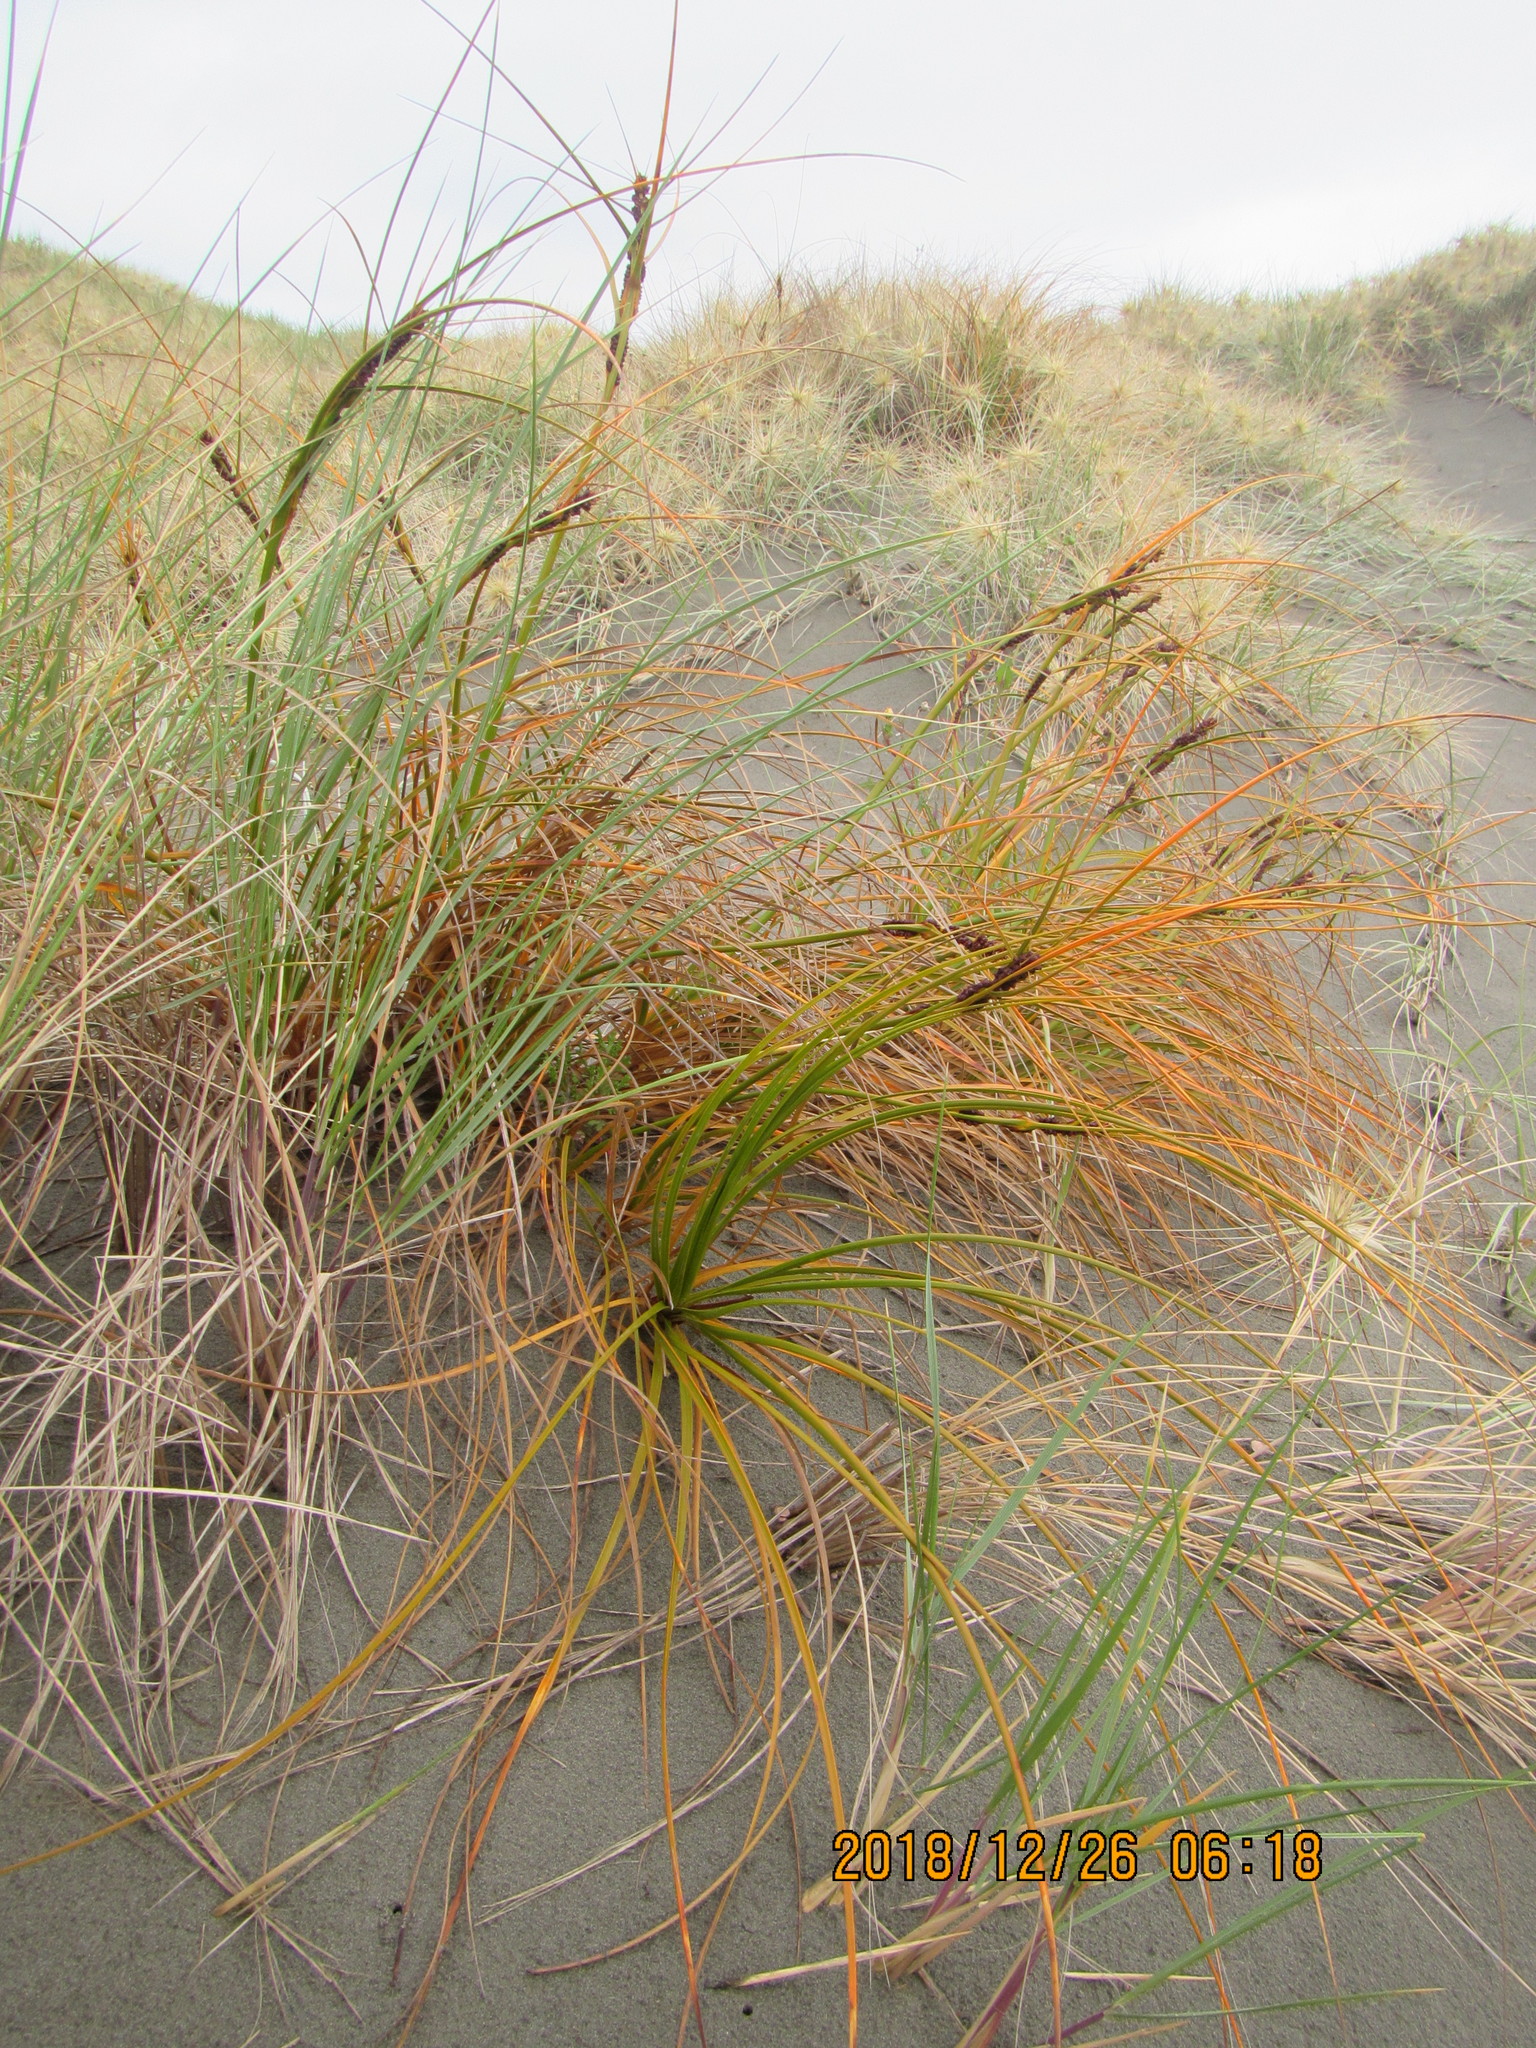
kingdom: Plantae
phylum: Tracheophyta
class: Liliopsida
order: Poales
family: Cyperaceae
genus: Ficinia
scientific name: Ficinia spiralis
